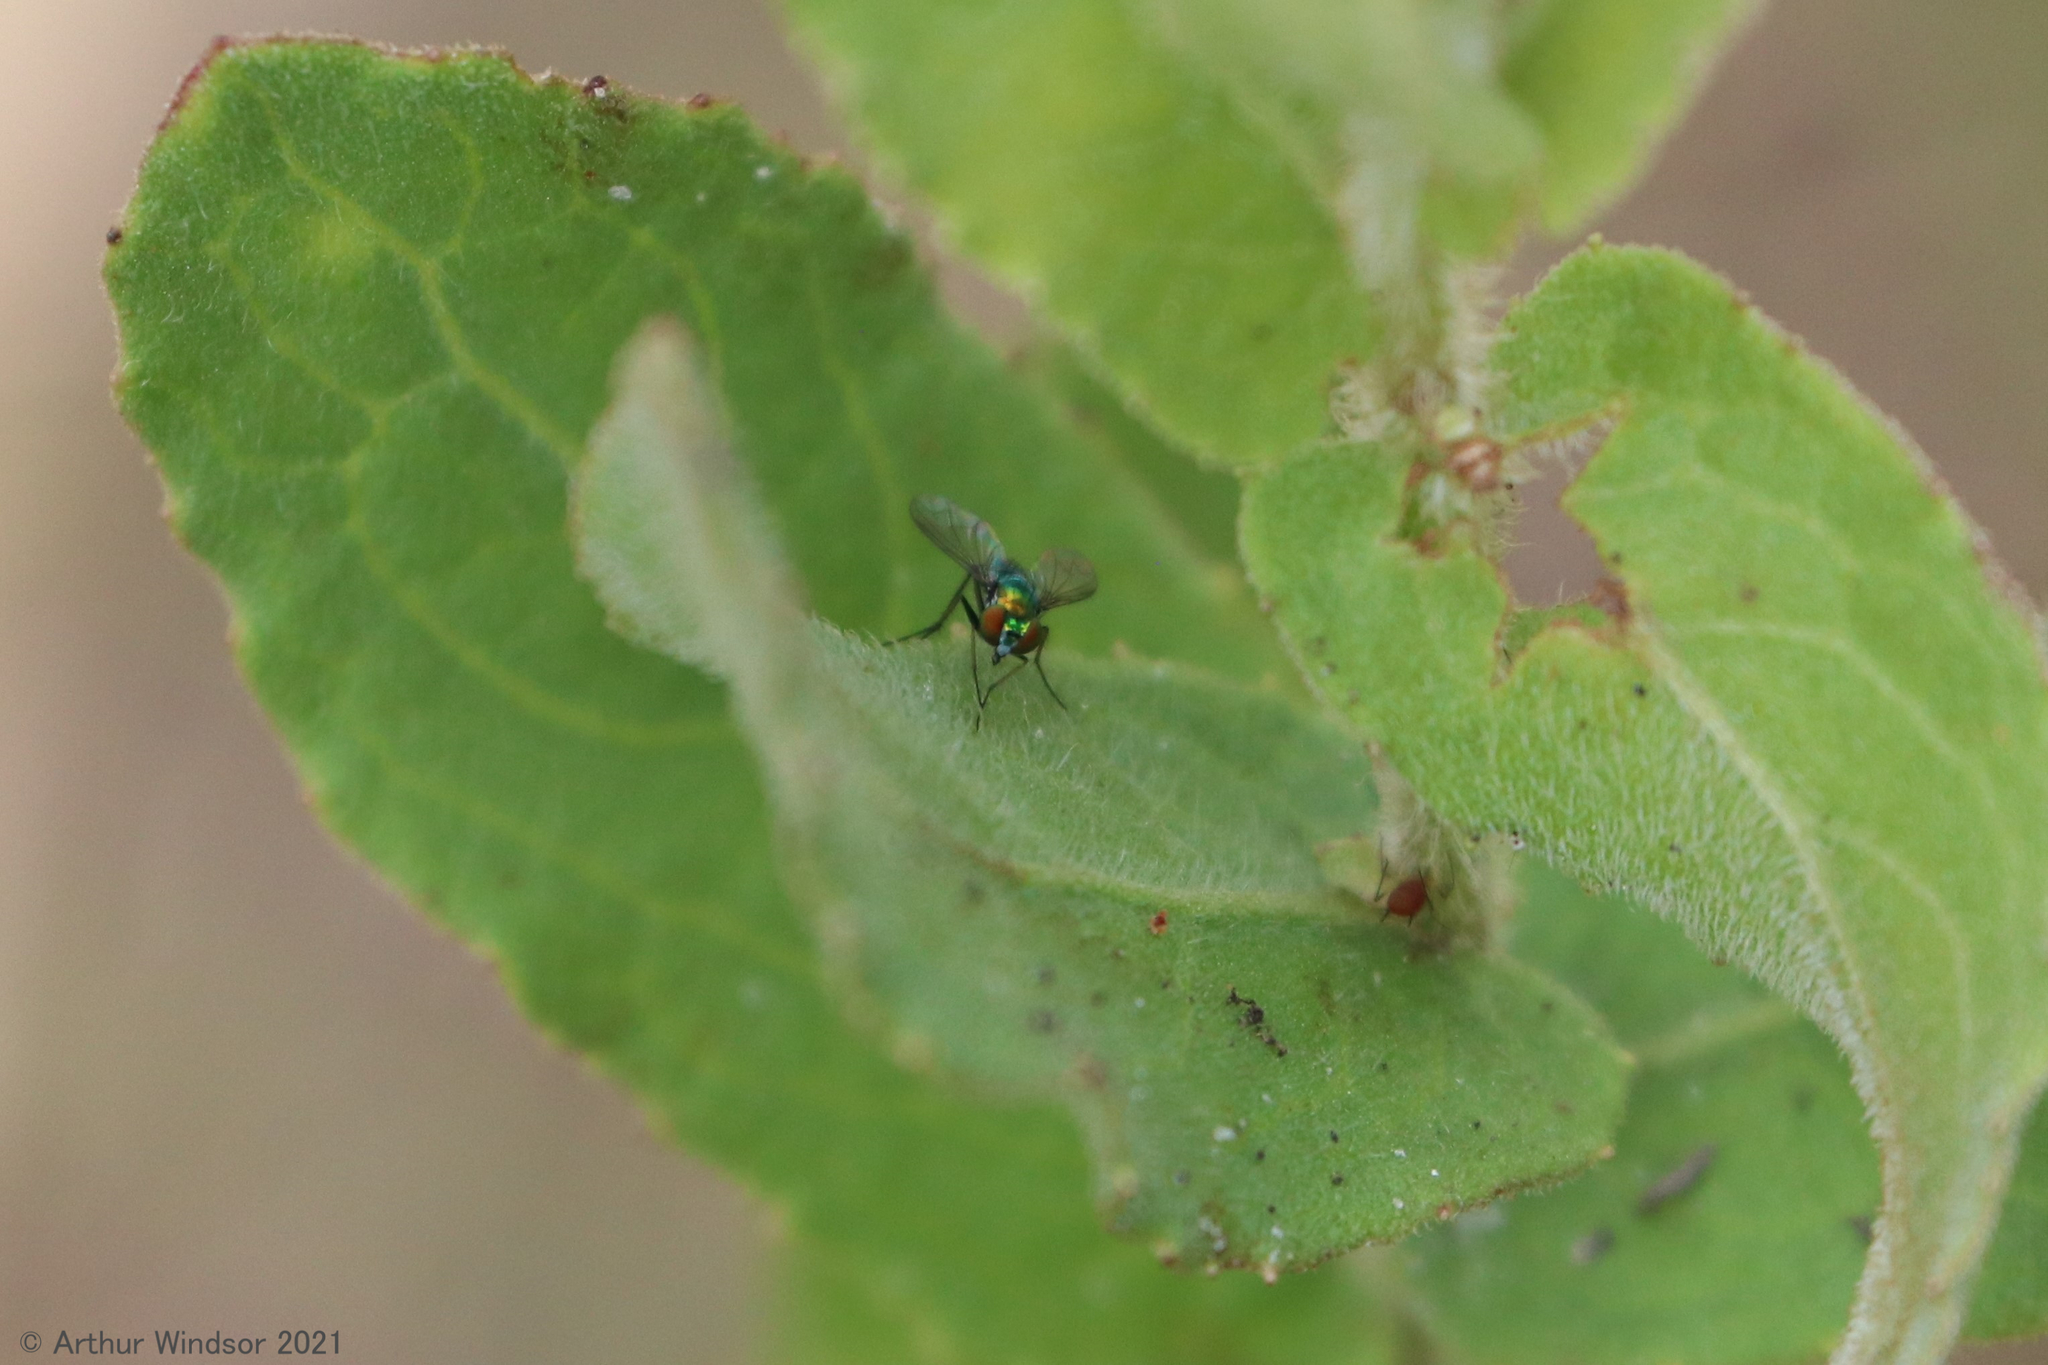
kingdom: Animalia
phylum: Arthropoda
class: Insecta
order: Diptera
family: Dolichopodidae
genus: Condylostylus
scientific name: Condylostylus longicornis
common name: Long-legged fly
